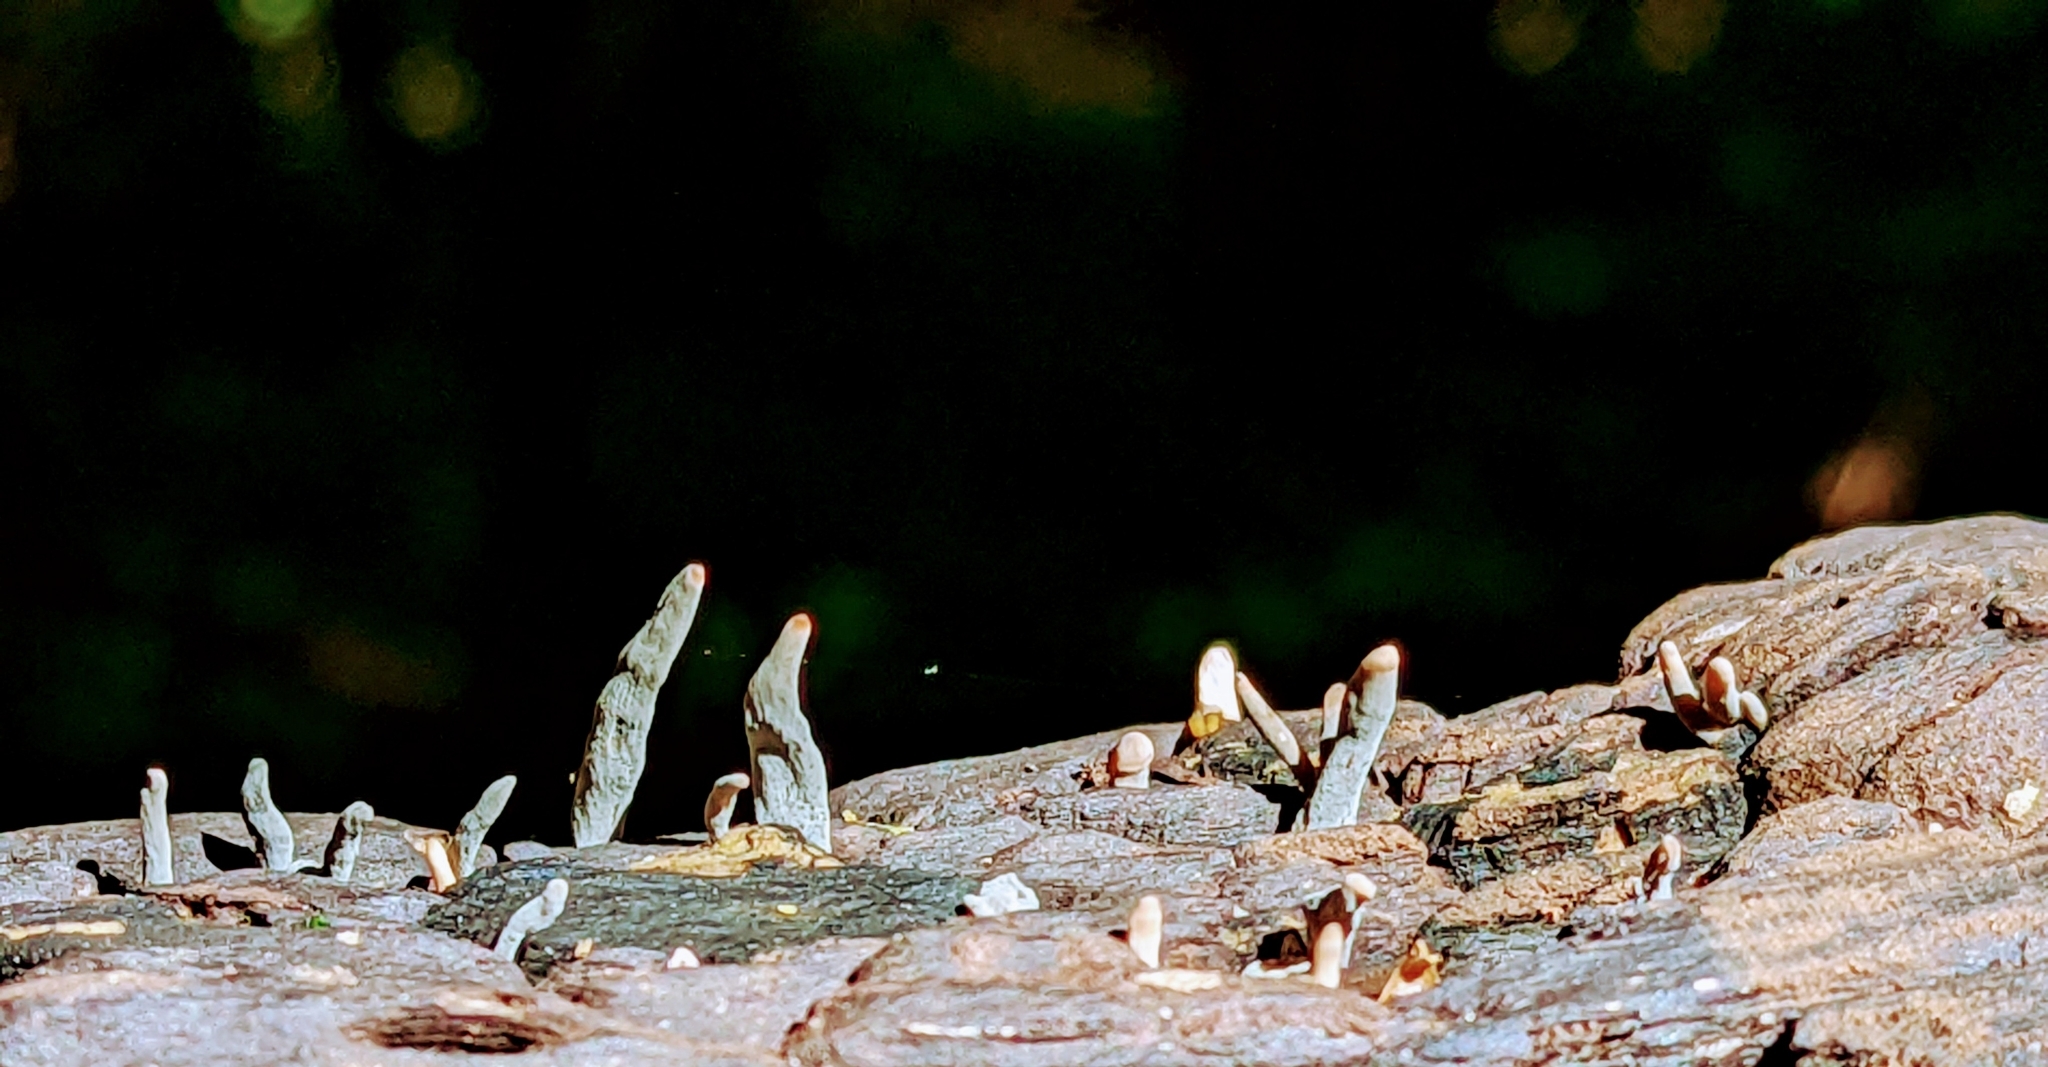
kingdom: Fungi
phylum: Ascomycota
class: Sordariomycetes
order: Xylariales
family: Xylariaceae
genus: Xylaria
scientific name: Xylaria polymorpha
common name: Dead man's fingers
